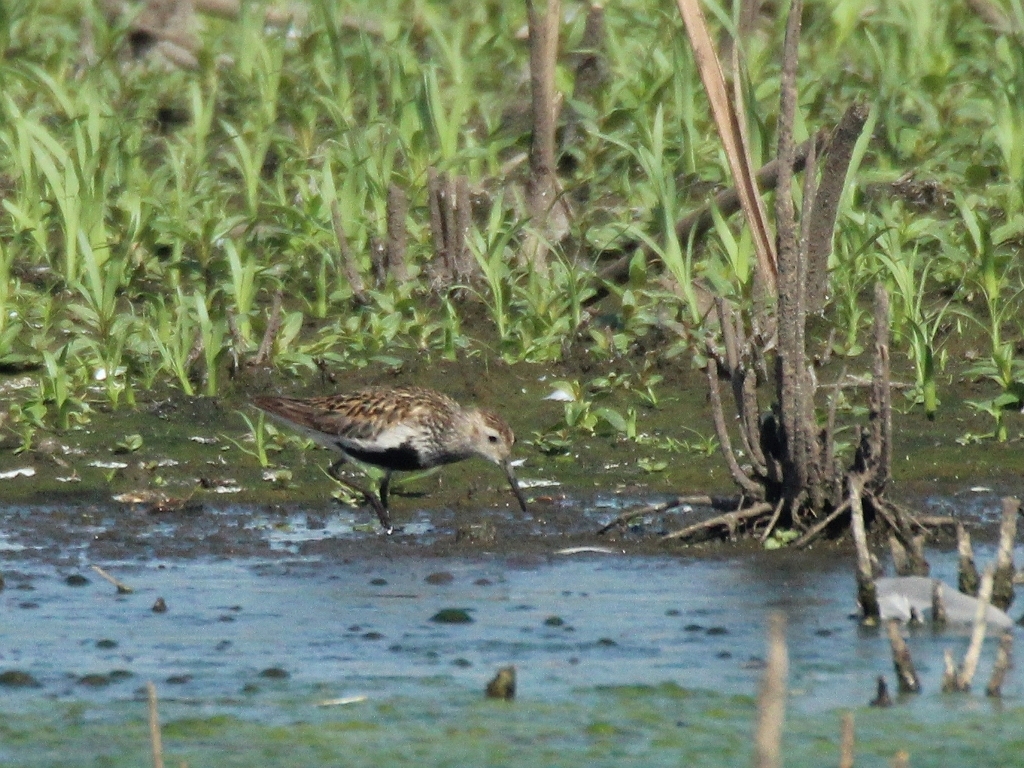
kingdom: Animalia
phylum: Chordata
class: Aves
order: Charadriiformes
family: Scolopacidae
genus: Calidris
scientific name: Calidris alpina
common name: Dunlin
